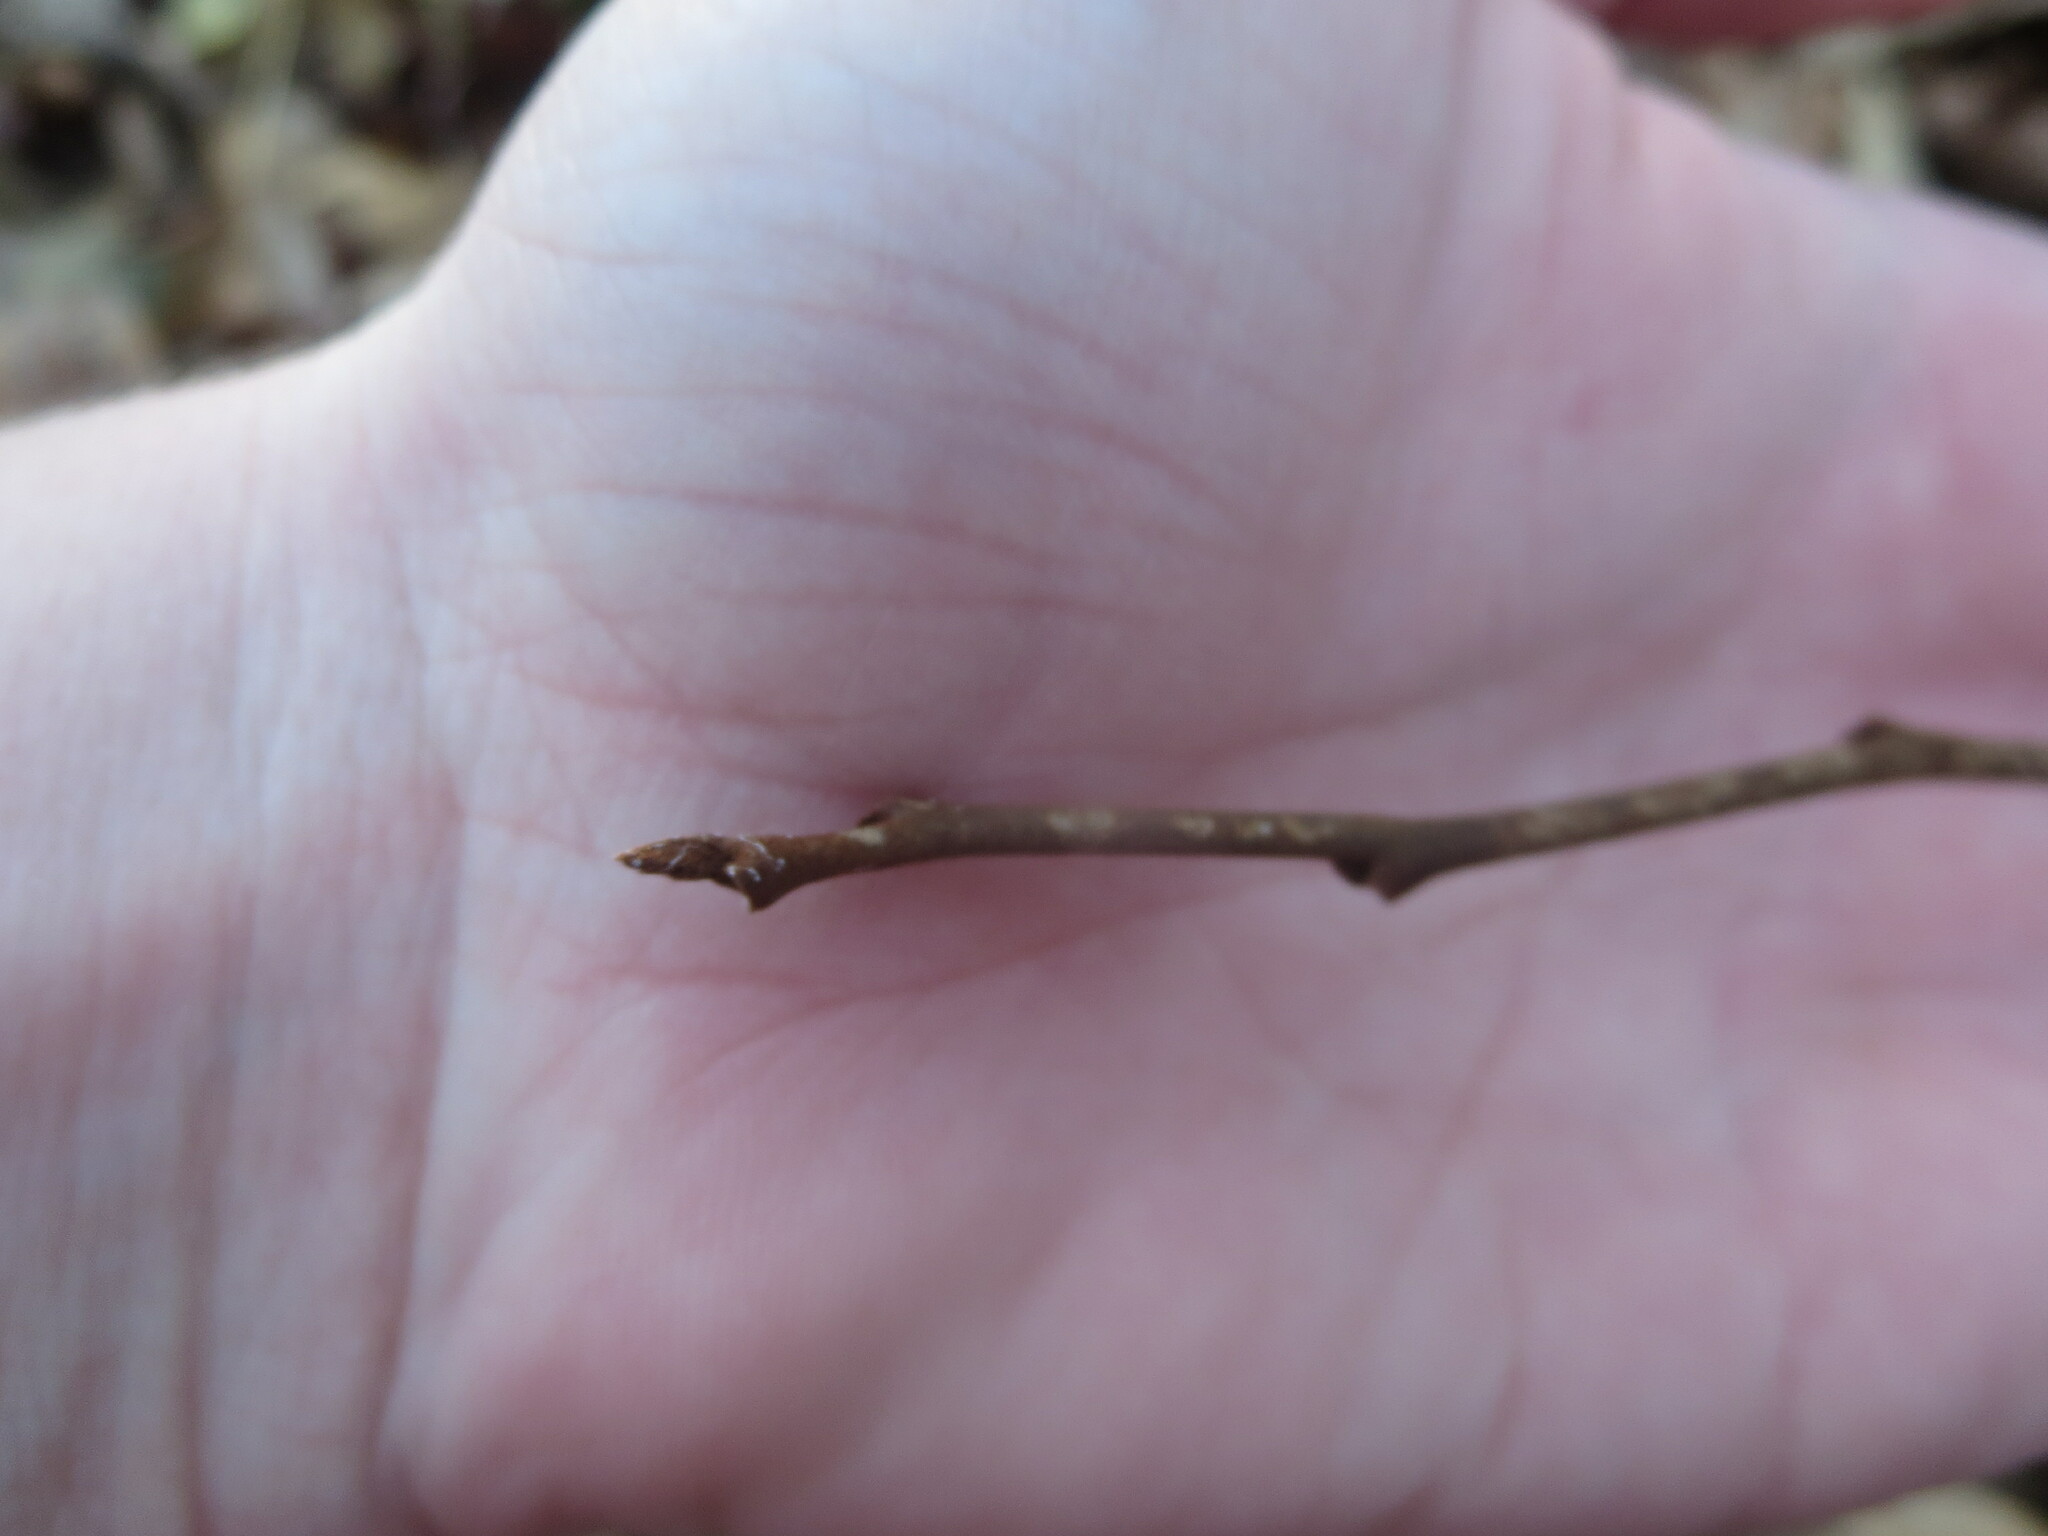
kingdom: Plantae
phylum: Tracheophyta
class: Magnoliopsida
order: Magnoliales
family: Annonaceae
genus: Asimina
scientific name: Asimina parviflora
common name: Dwarf pawpaw
